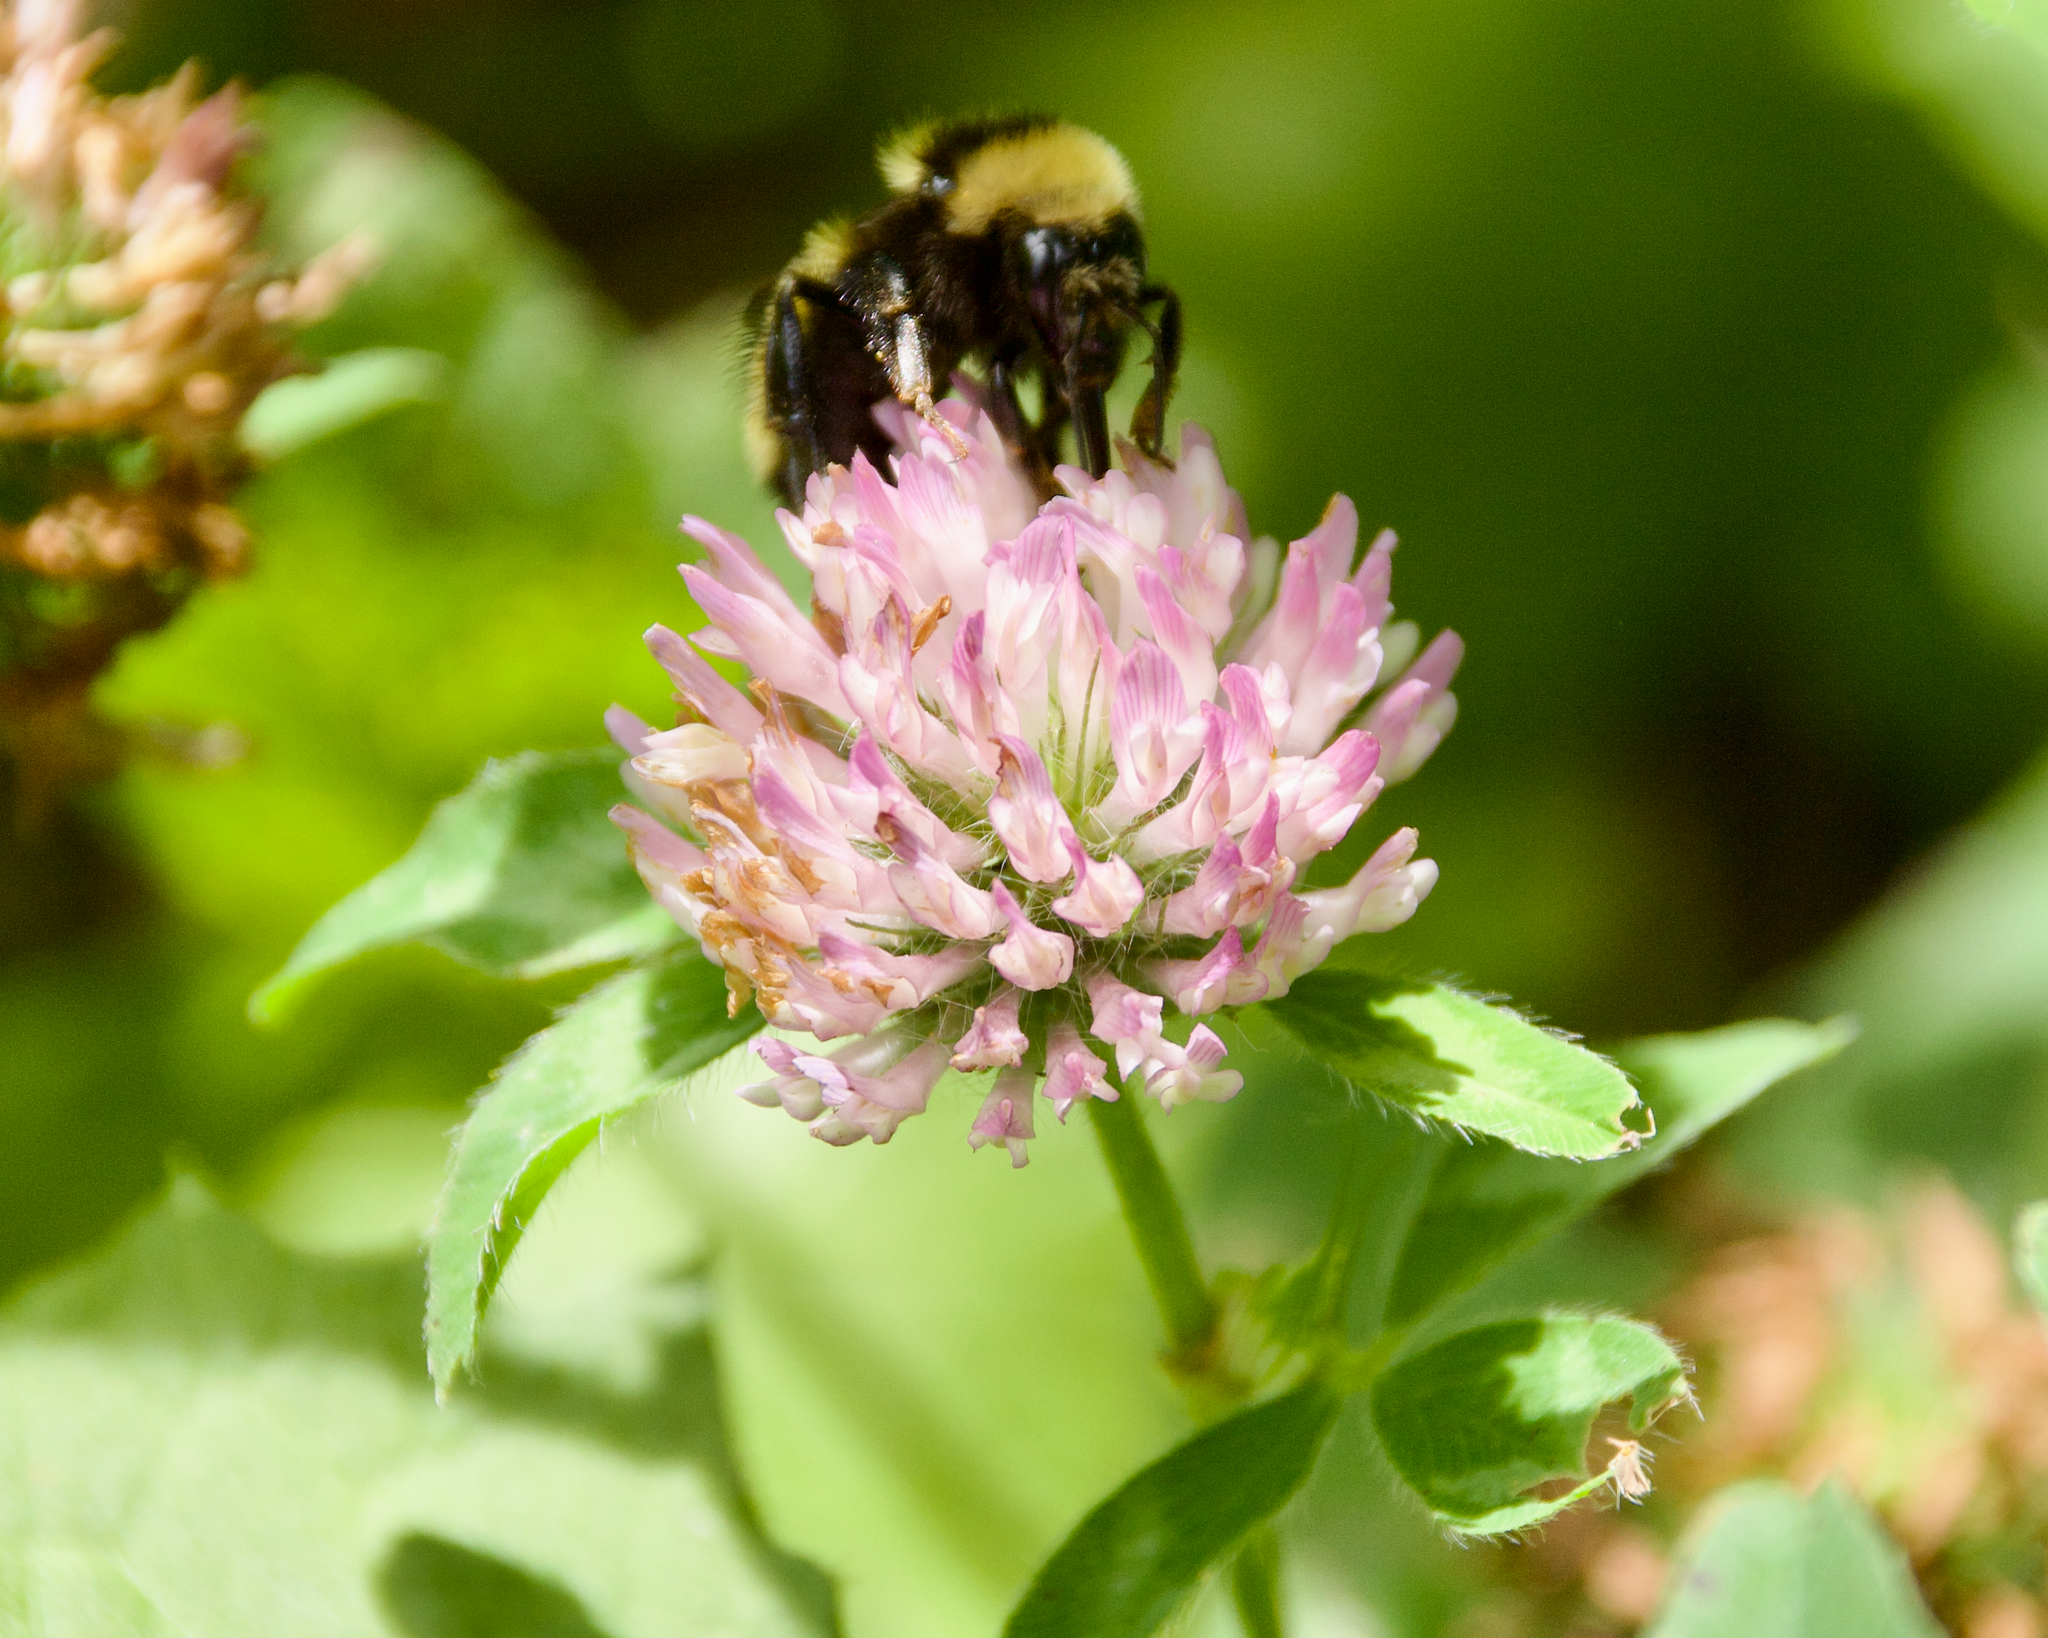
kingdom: Plantae
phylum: Tracheophyta
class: Magnoliopsida
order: Fabales
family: Fabaceae
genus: Trifolium
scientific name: Trifolium pratense
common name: Red clover
